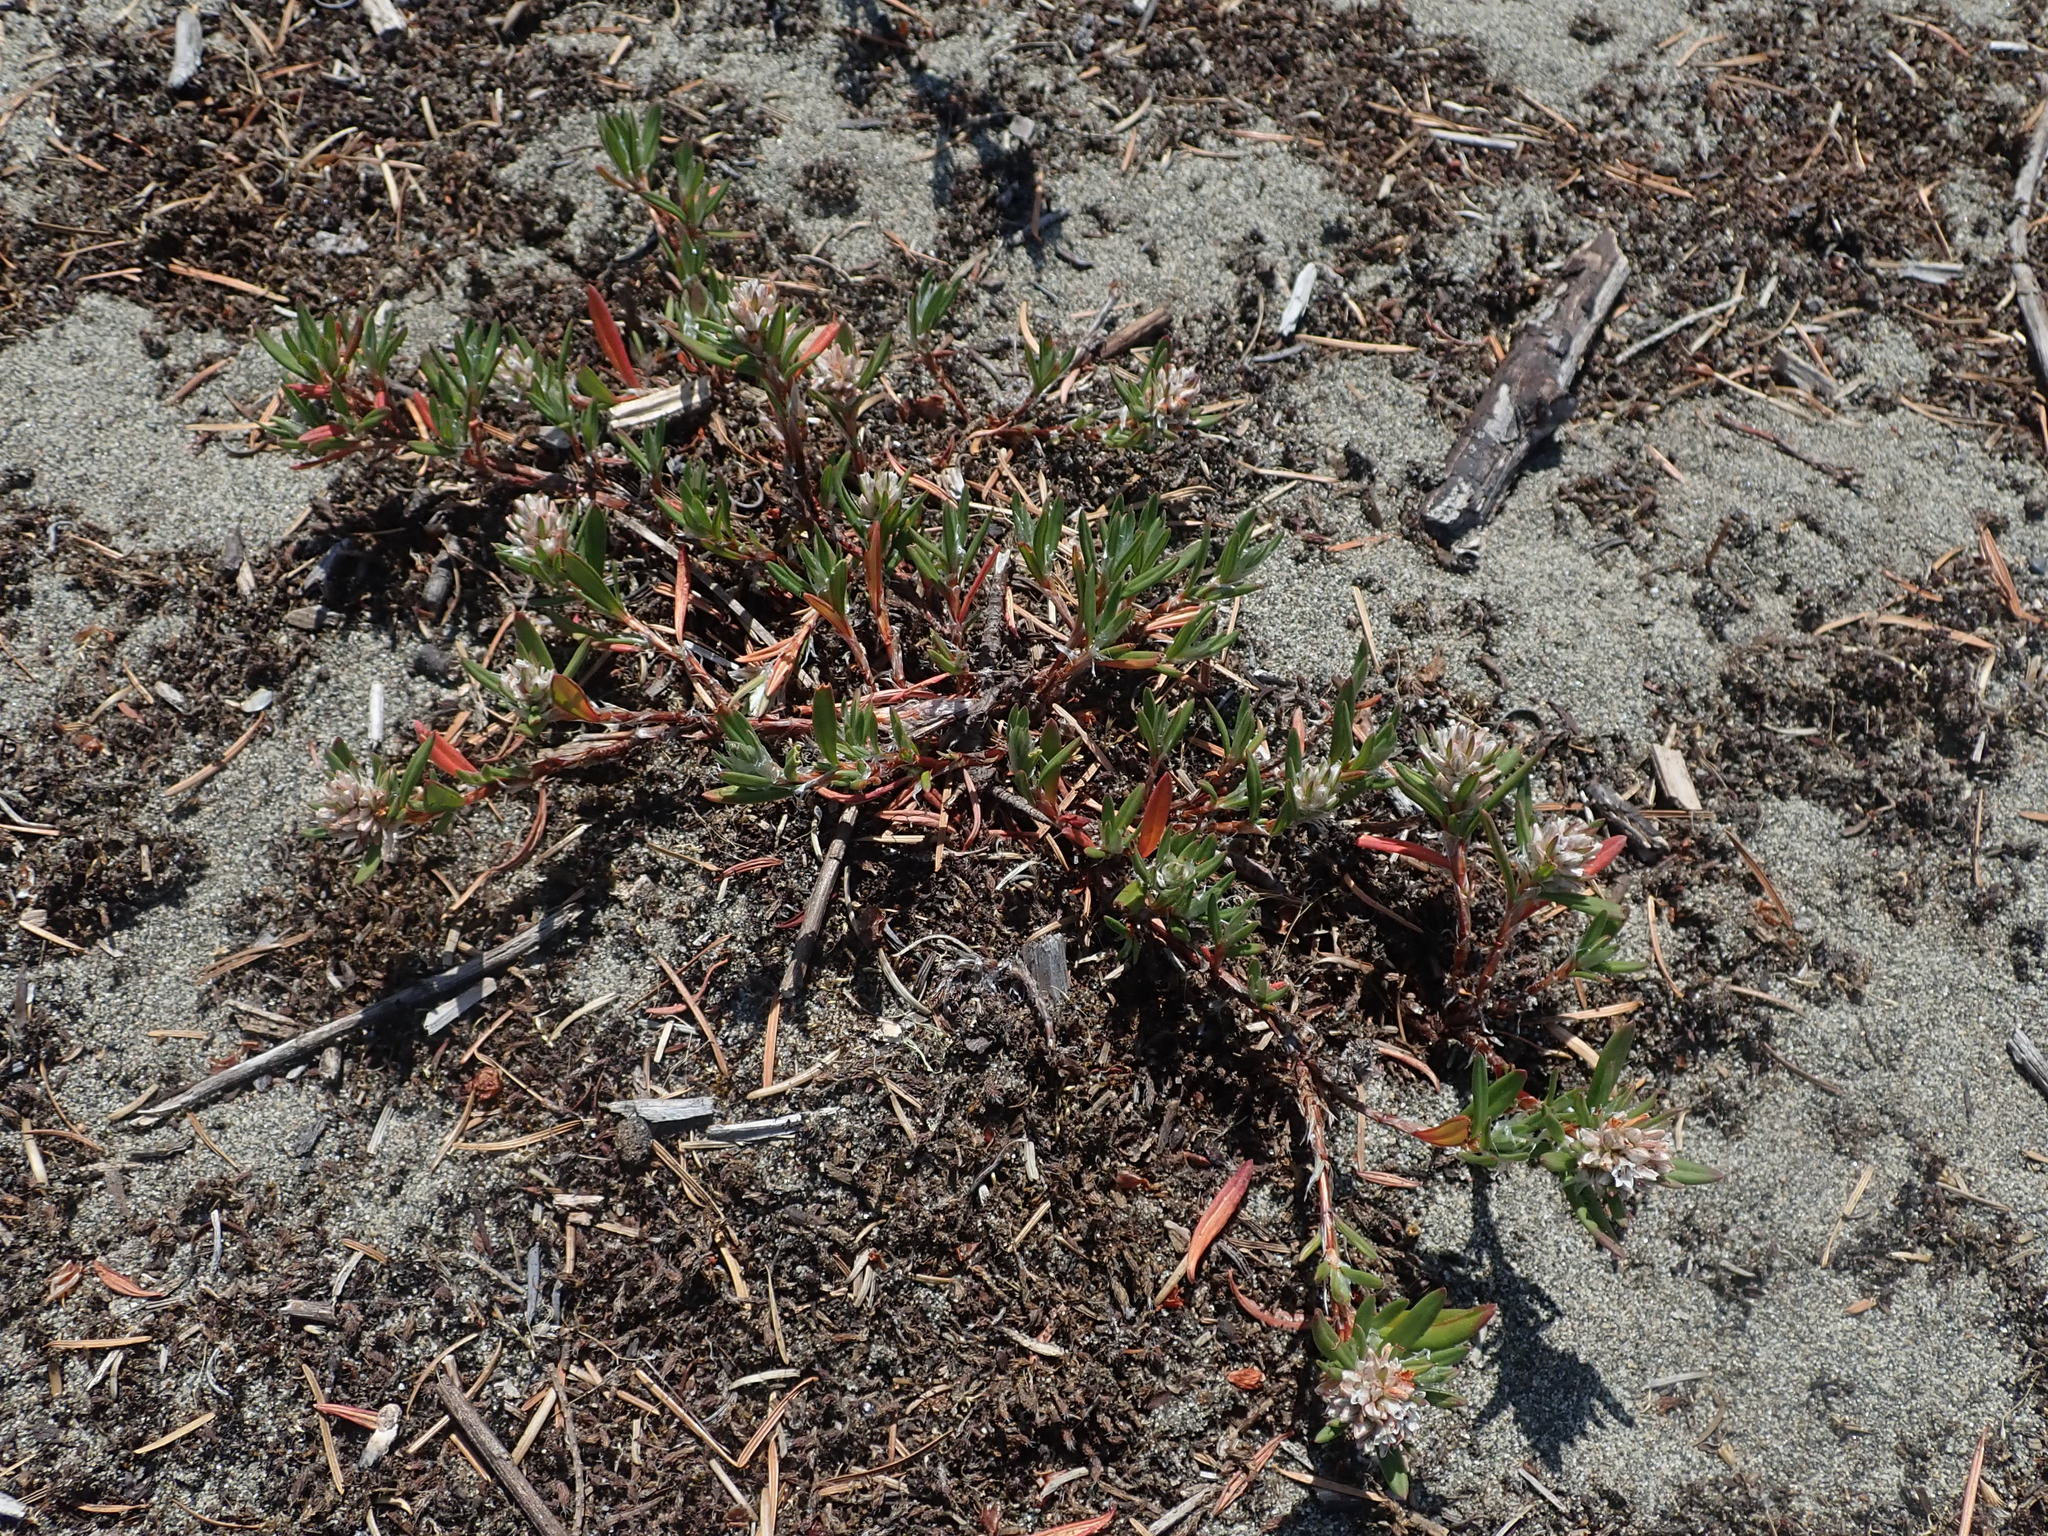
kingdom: Plantae
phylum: Tracheophyta
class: Magnoliopsida
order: Caryophyllales
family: Polygonaceae
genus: Polygonum
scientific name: Polygonum paronychia
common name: Dune knotweed
